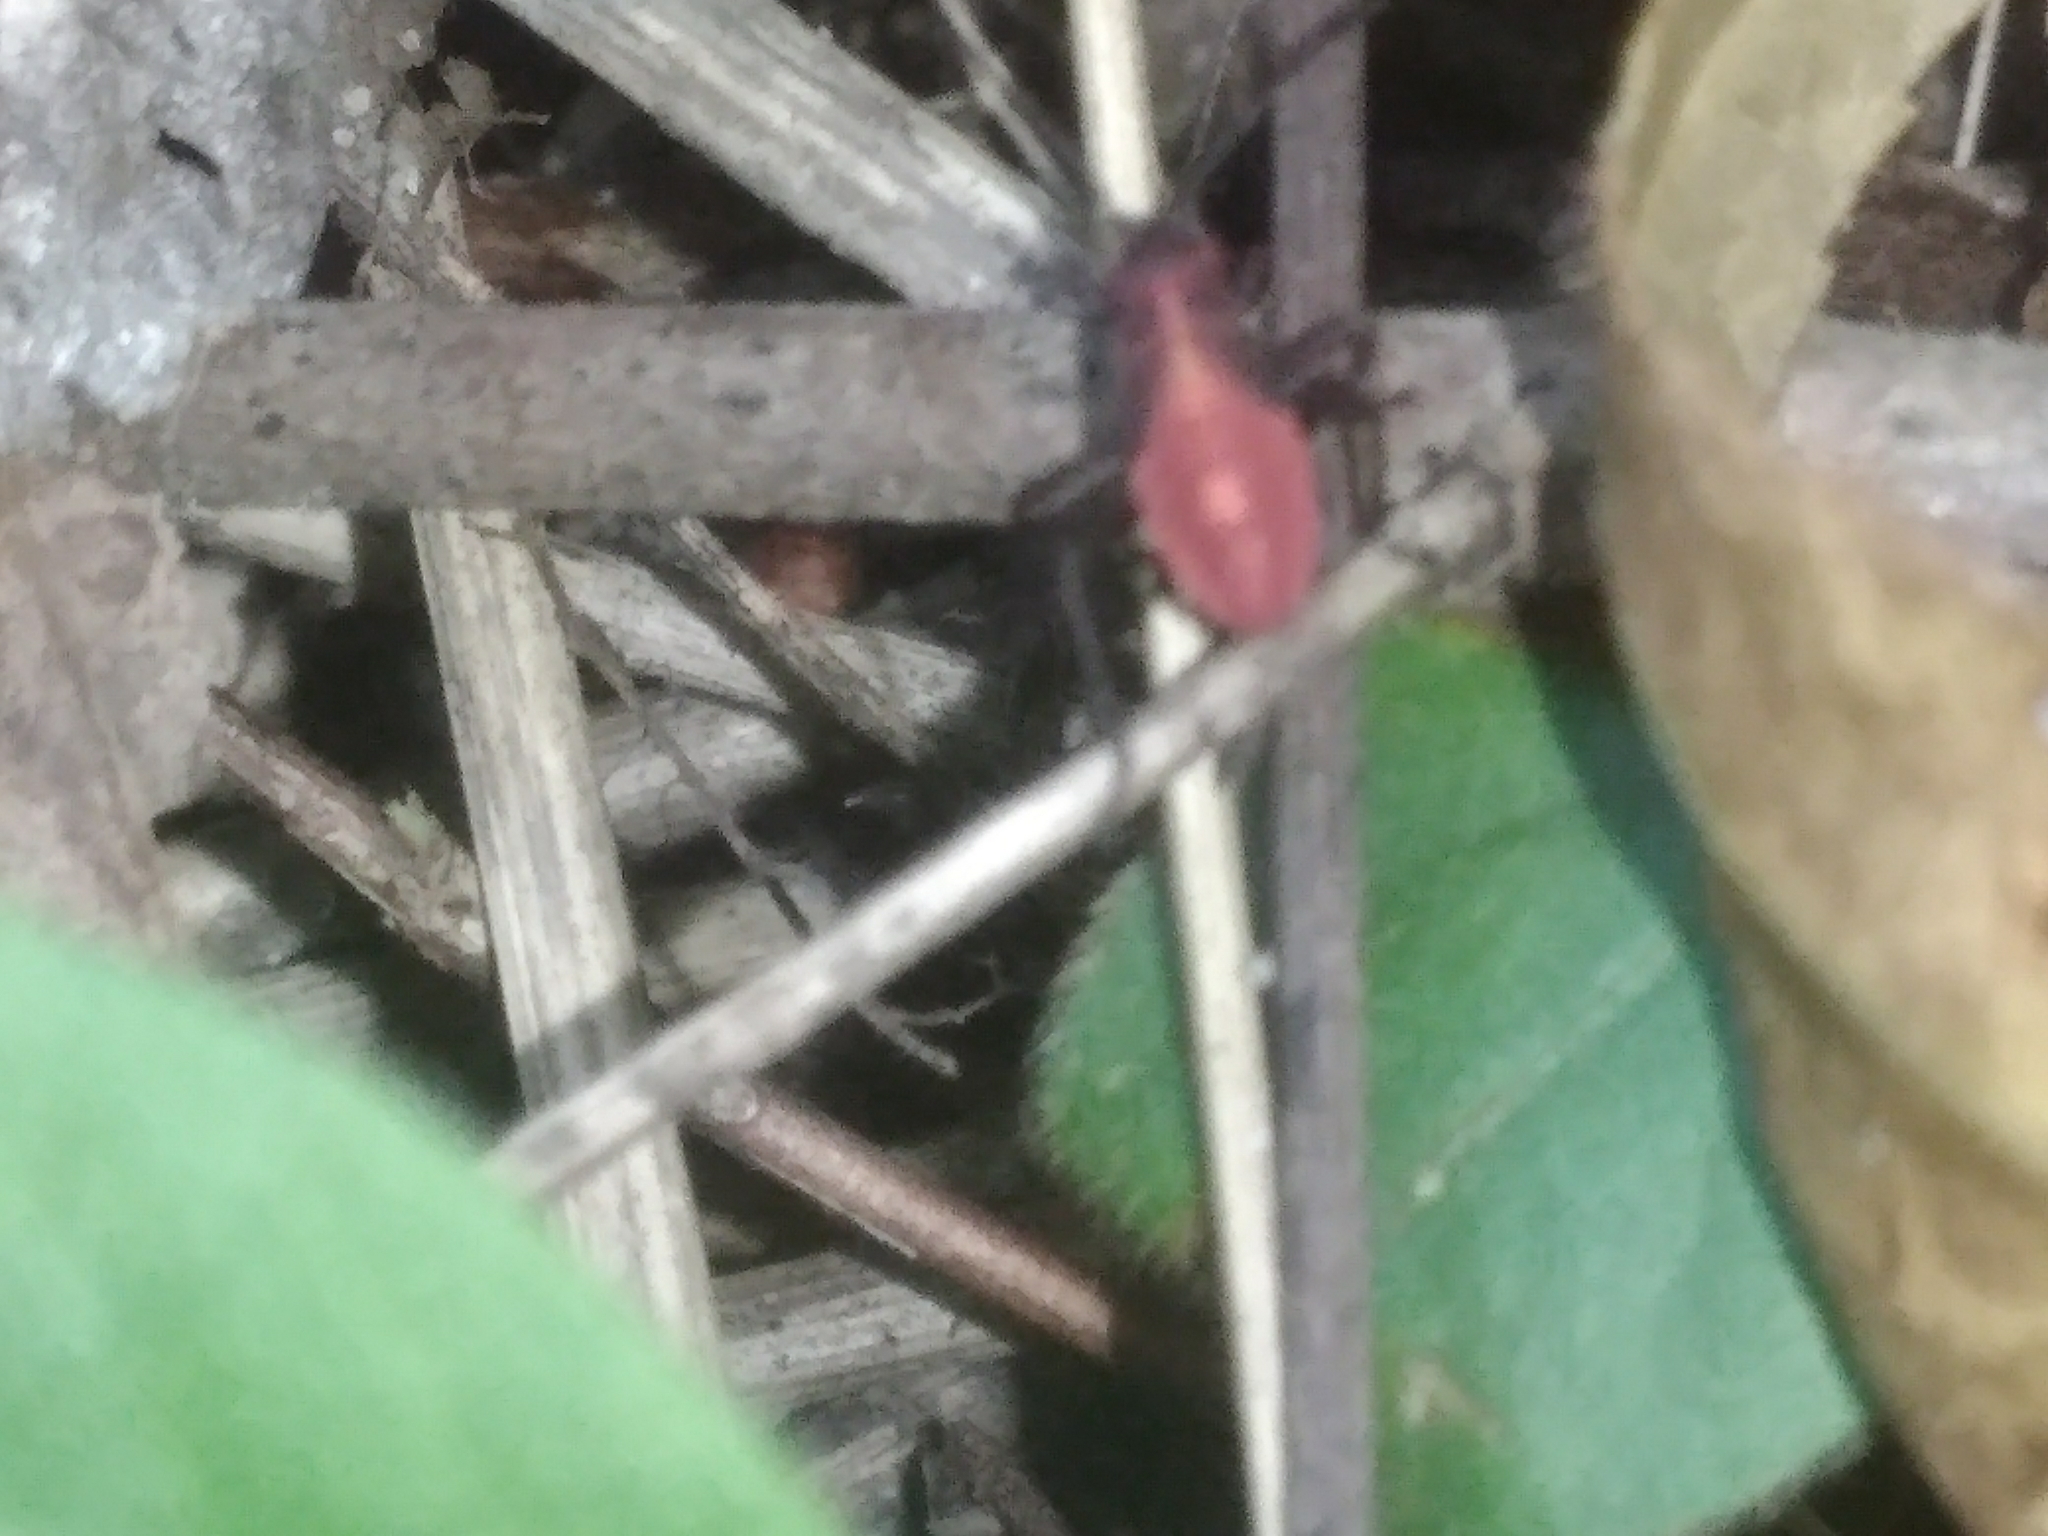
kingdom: Animalia
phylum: Arthropoda
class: Insecta
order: Hemiptera
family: Rhopalidae
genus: Boisea
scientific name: Boisea trivittata
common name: Boxelder bug
